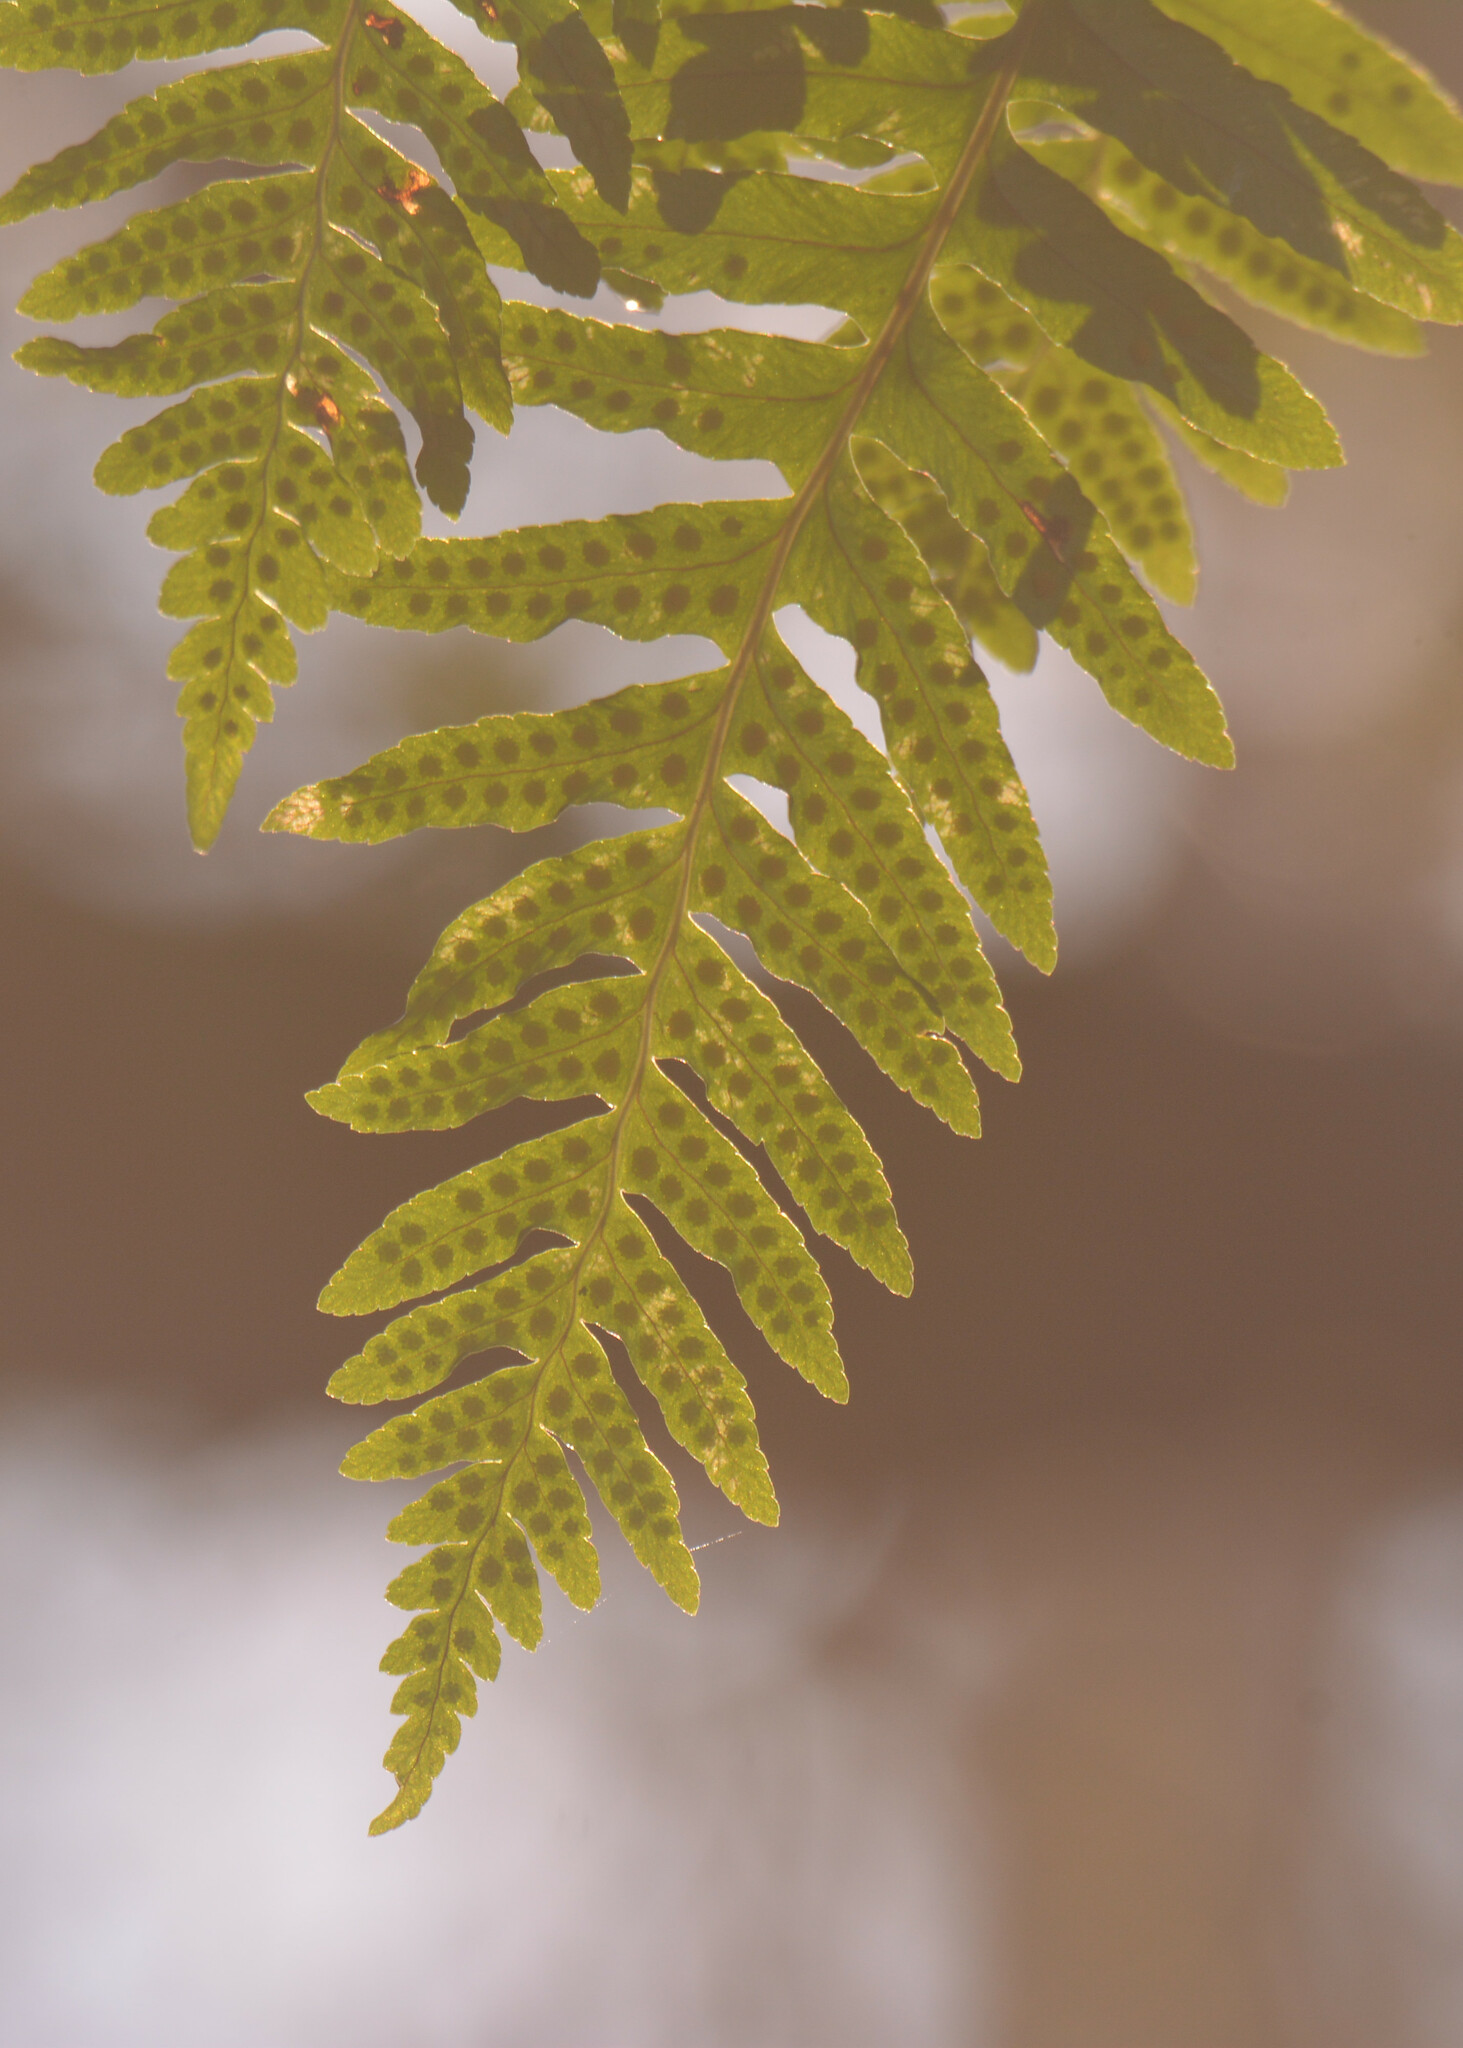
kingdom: Plantae
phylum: Tracheophyta
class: Polypodiopsida
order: Polypodiales
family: Polypodiaceae
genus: Polypodium
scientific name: Polypodium
